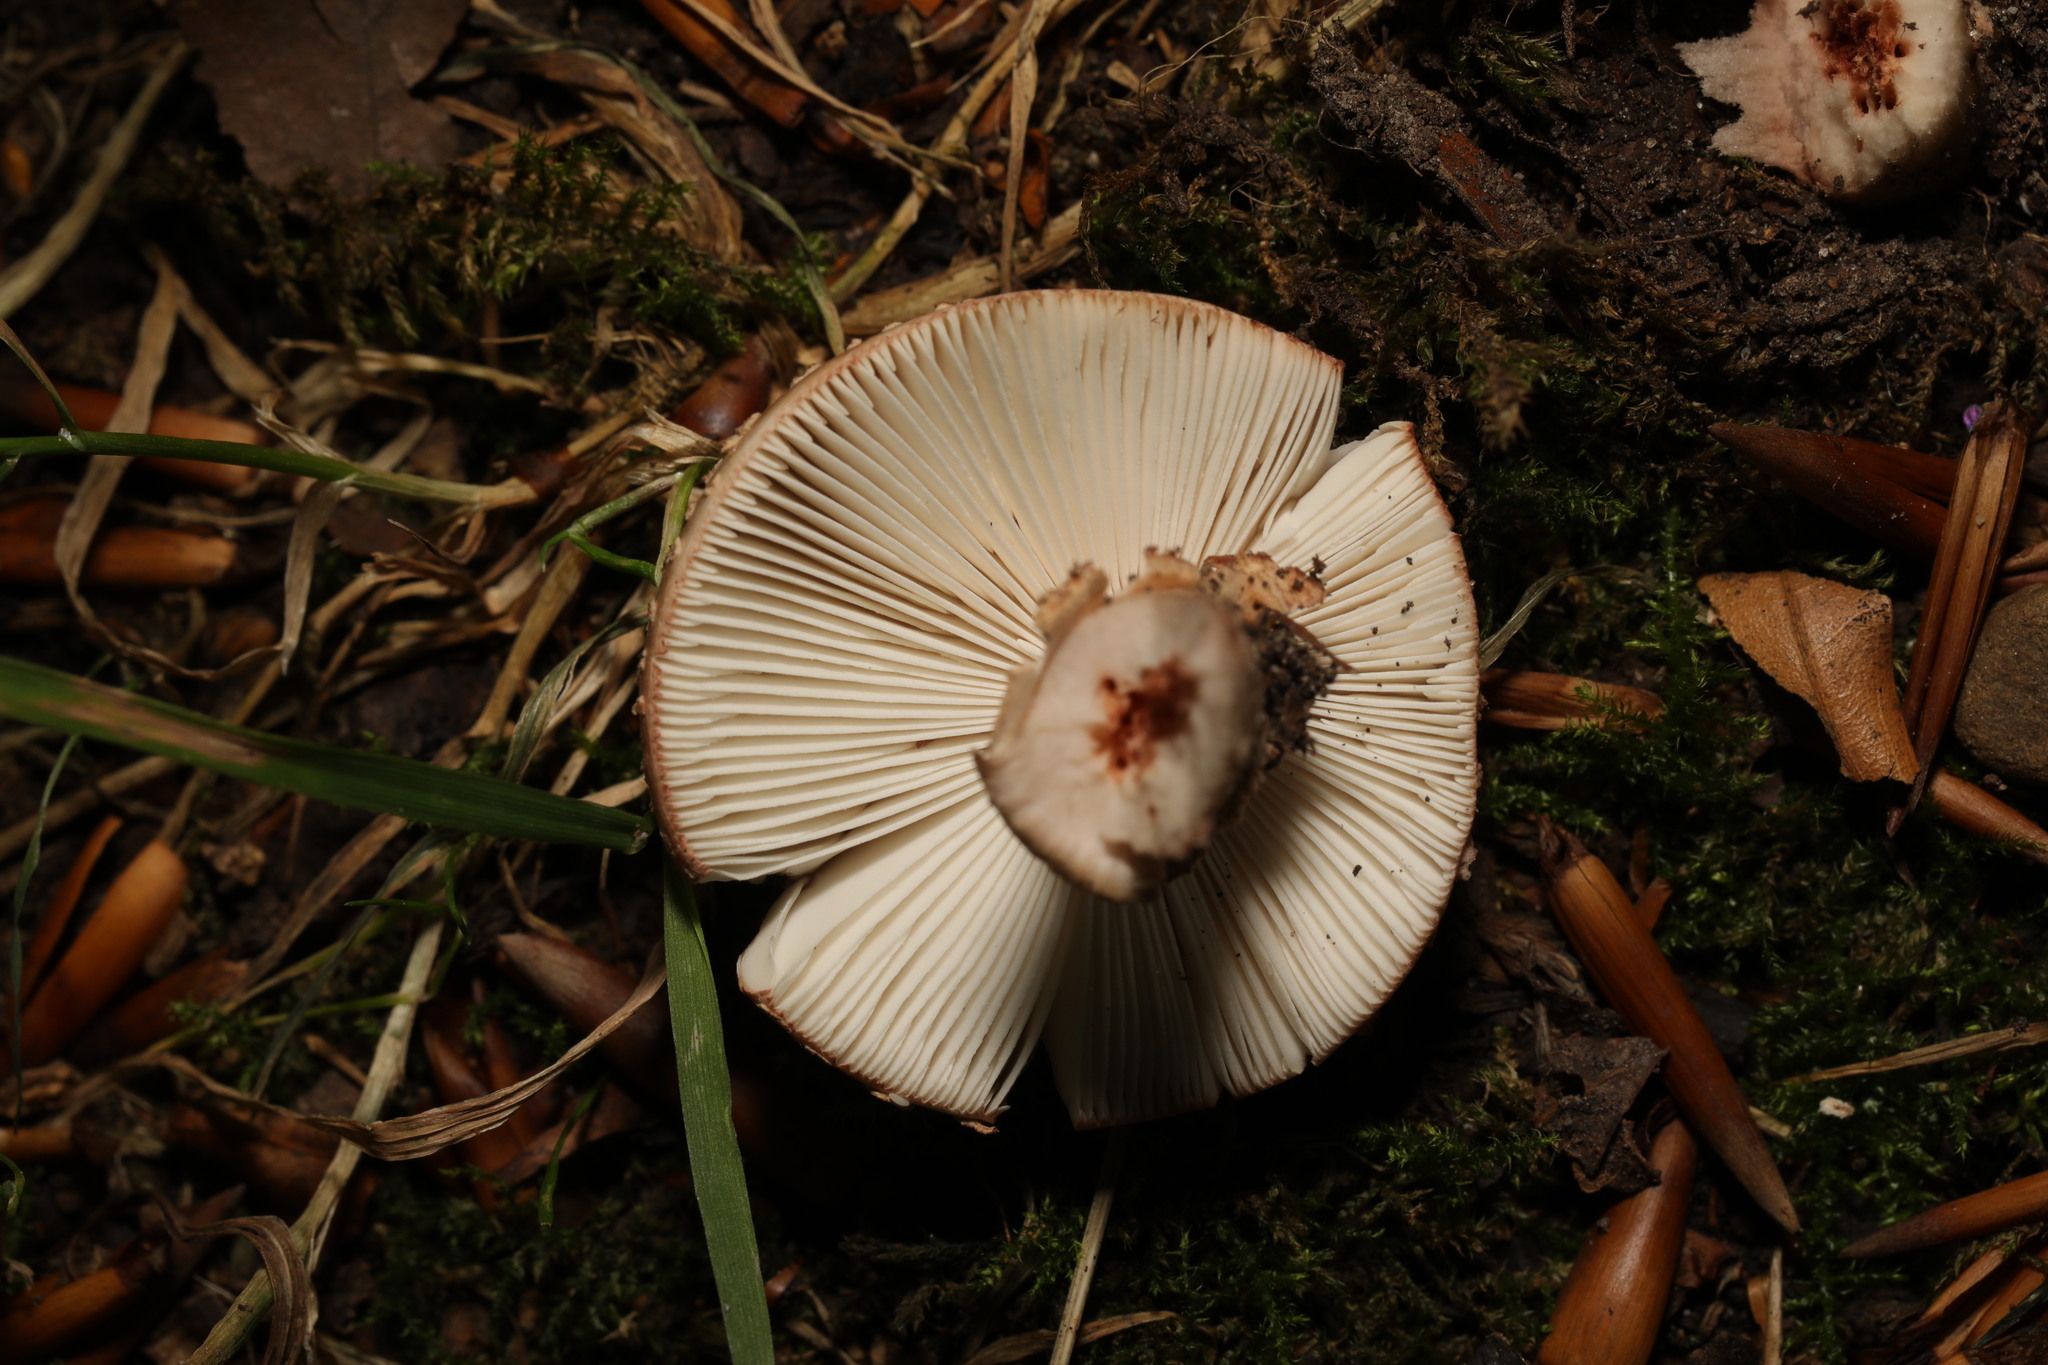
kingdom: Fungi
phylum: Basidiomycota
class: Agaricomycetes
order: Agaricales
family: Amanitaceae
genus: Amanita
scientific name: Amanita rubescens
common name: Blusher
